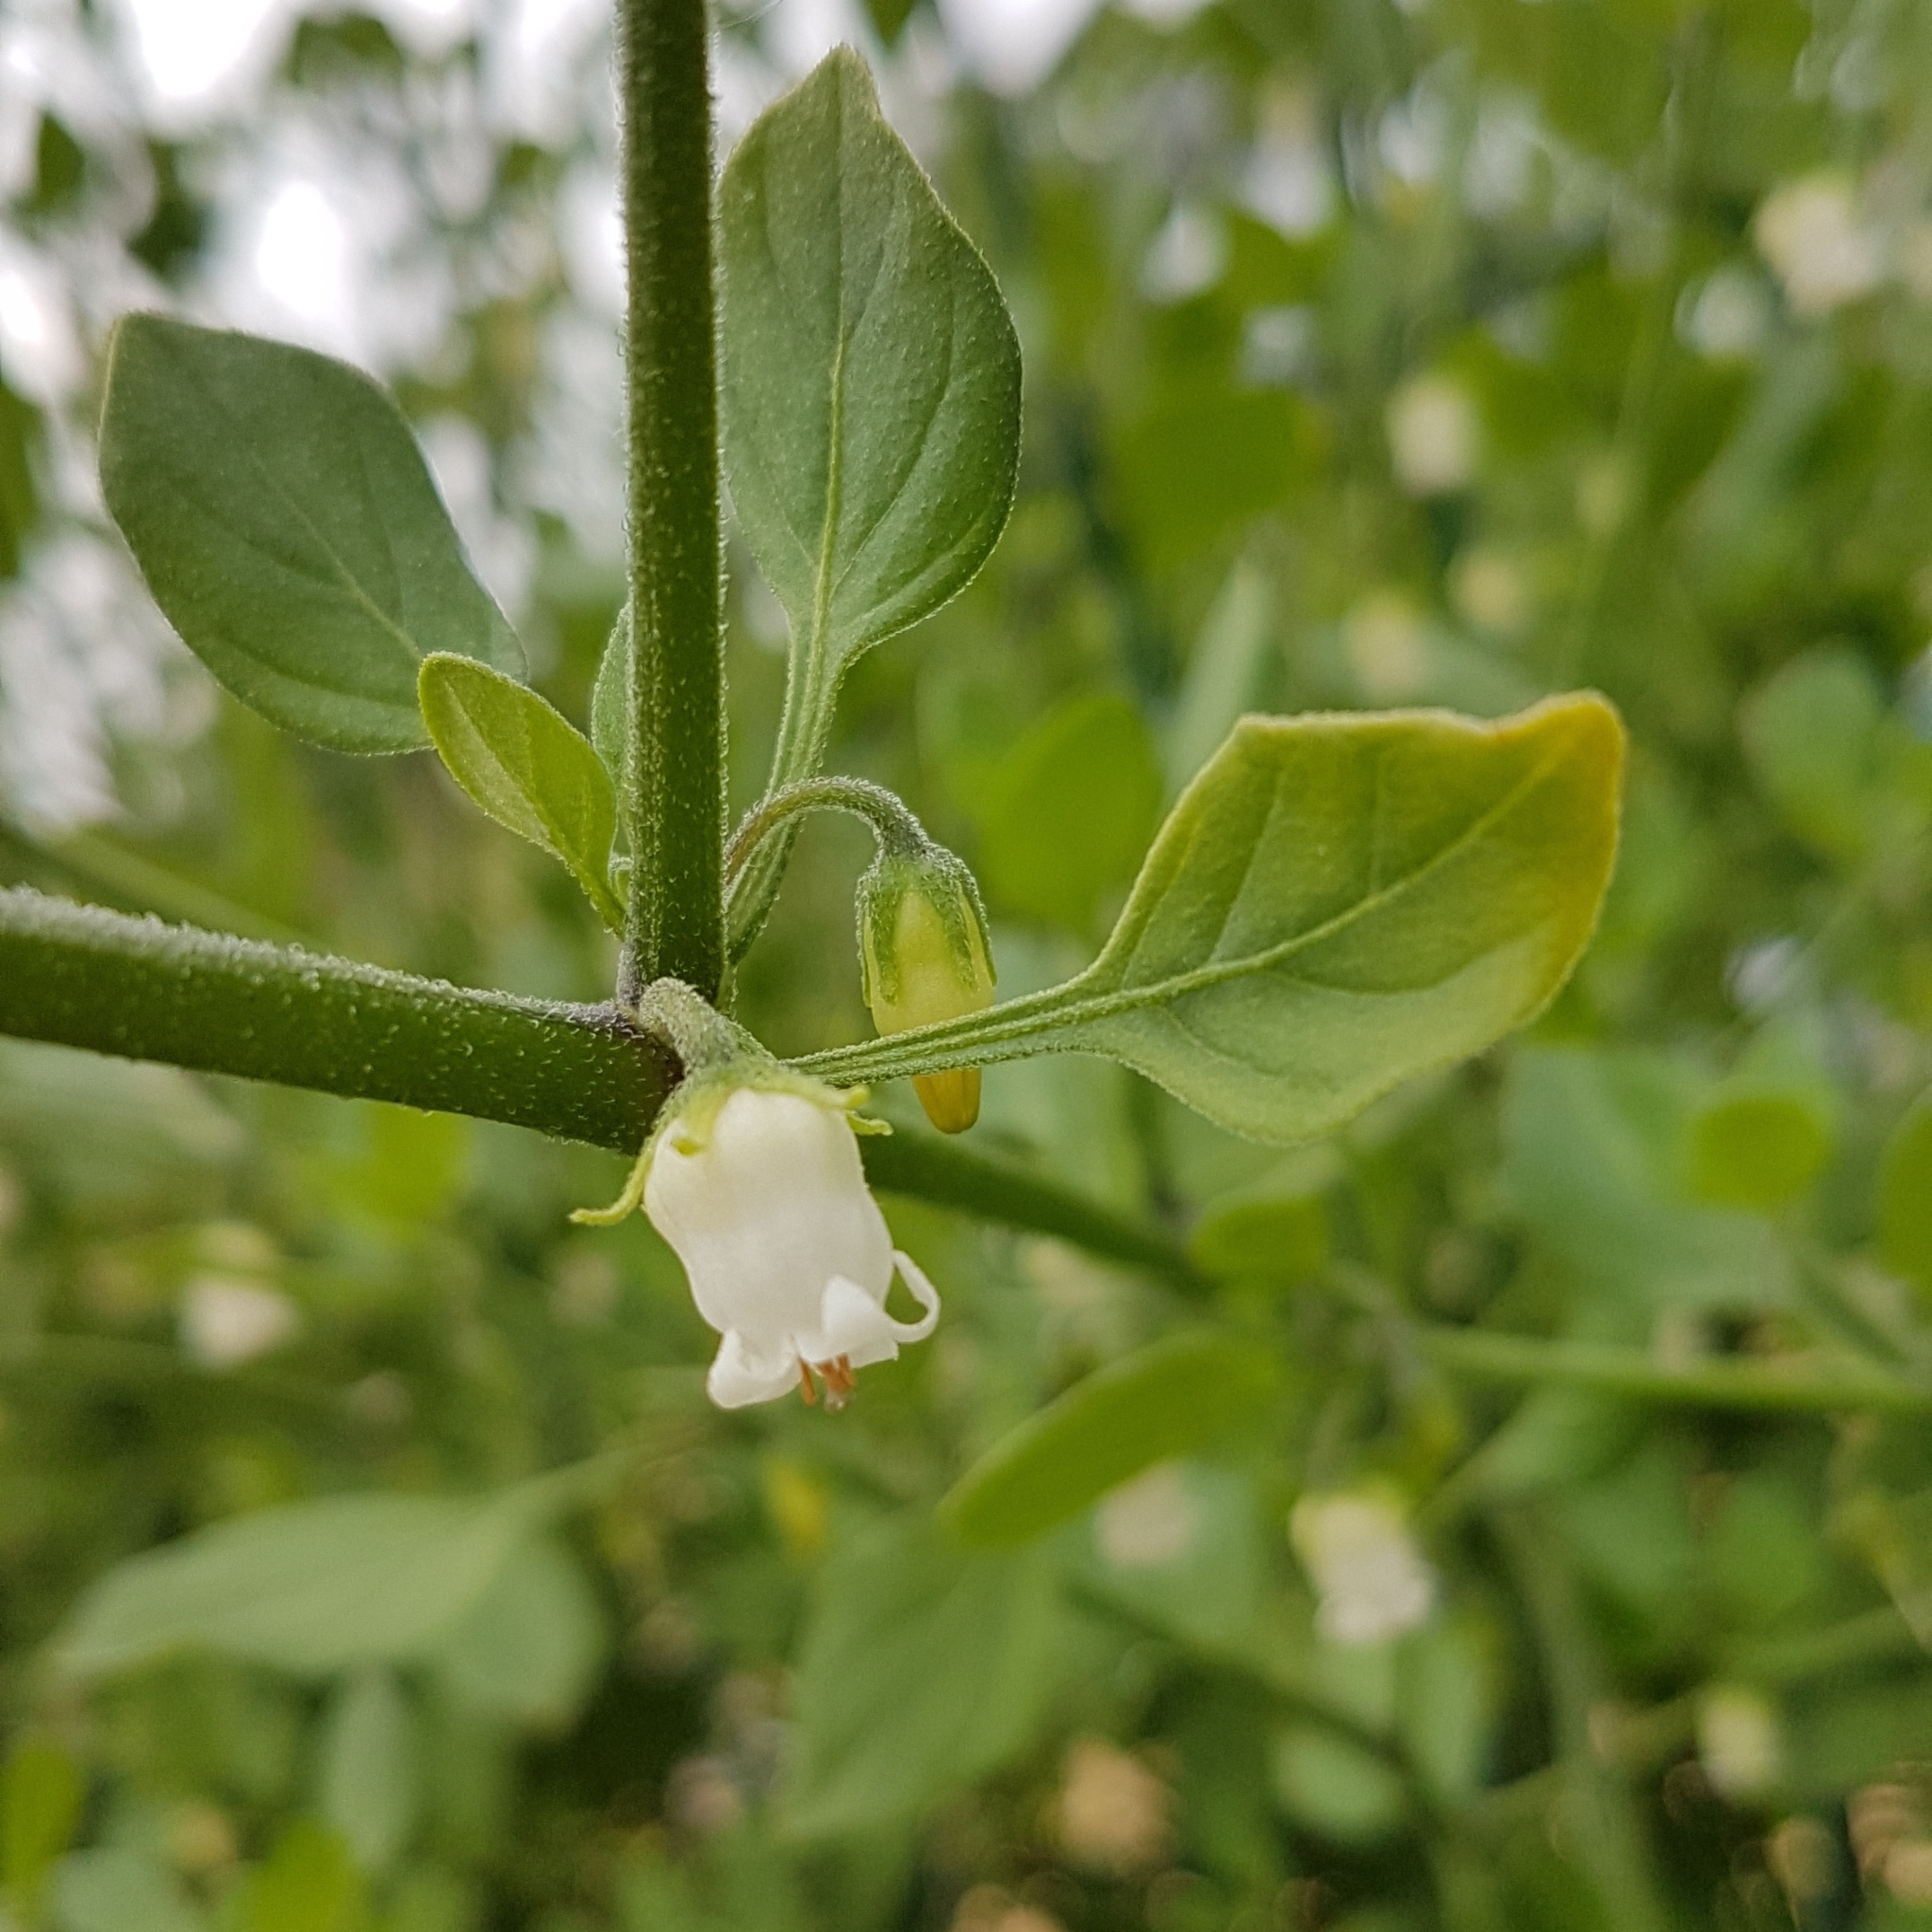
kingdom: Plantae
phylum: Tracheophyta
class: Magnoliopsida
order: Solanales
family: Solanaceae
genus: Salpichroa
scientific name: Salpichroa origanifolia
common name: Lily-of-the-valley-vine
